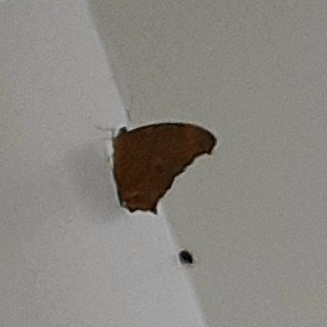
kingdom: Animalia
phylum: Arthropoda
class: Insecta
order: Lepidoptera
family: Nymphalidae
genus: Melanitis
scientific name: Melanitis leda
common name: Twilight brown
